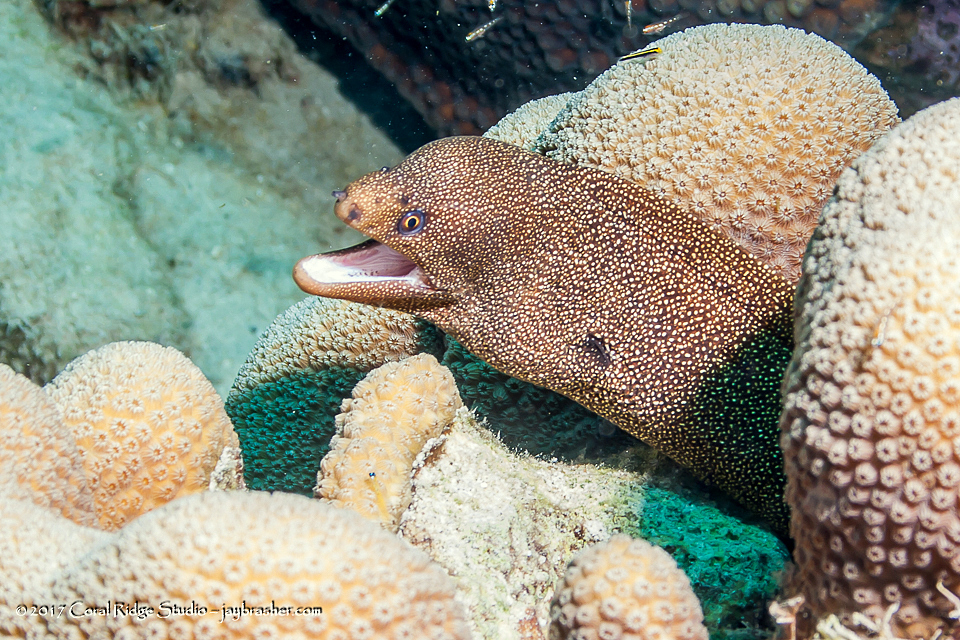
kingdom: Animalia
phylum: Chordata
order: Anguilliformes
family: Muraenidae
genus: Gymnothorax
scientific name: Gymnothorax miliaris
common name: Goldentail moray
